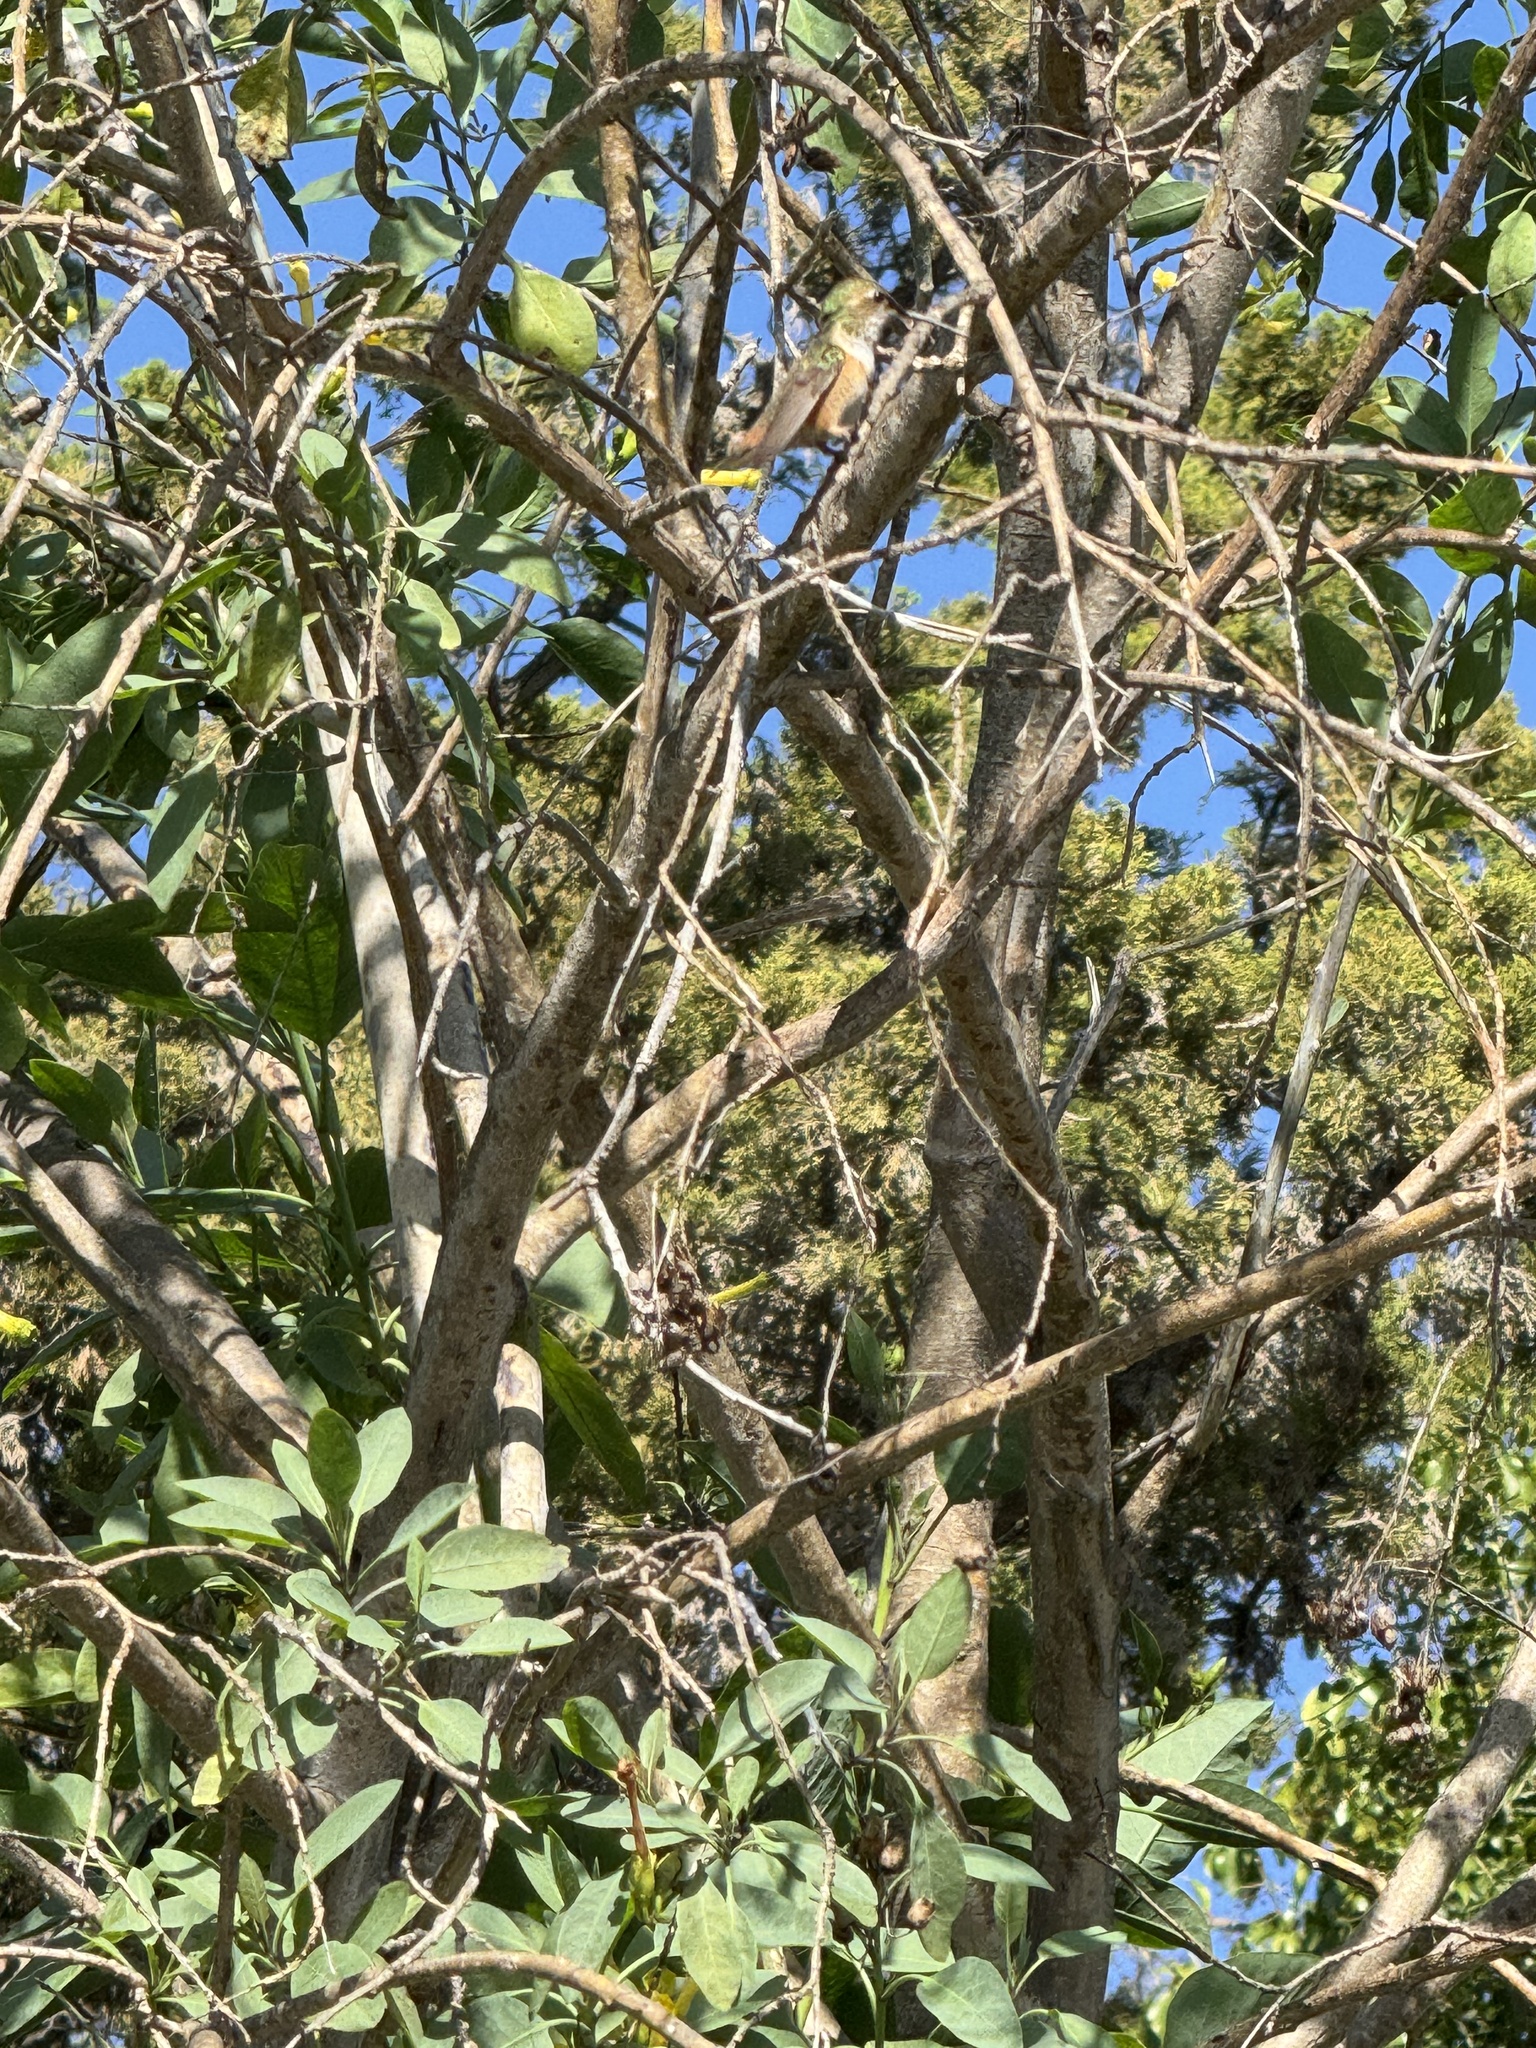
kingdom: Animalia
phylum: Chordata
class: Aves
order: Apodiformes
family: Trochilidae
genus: Selasphorus
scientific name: Selasphorus
